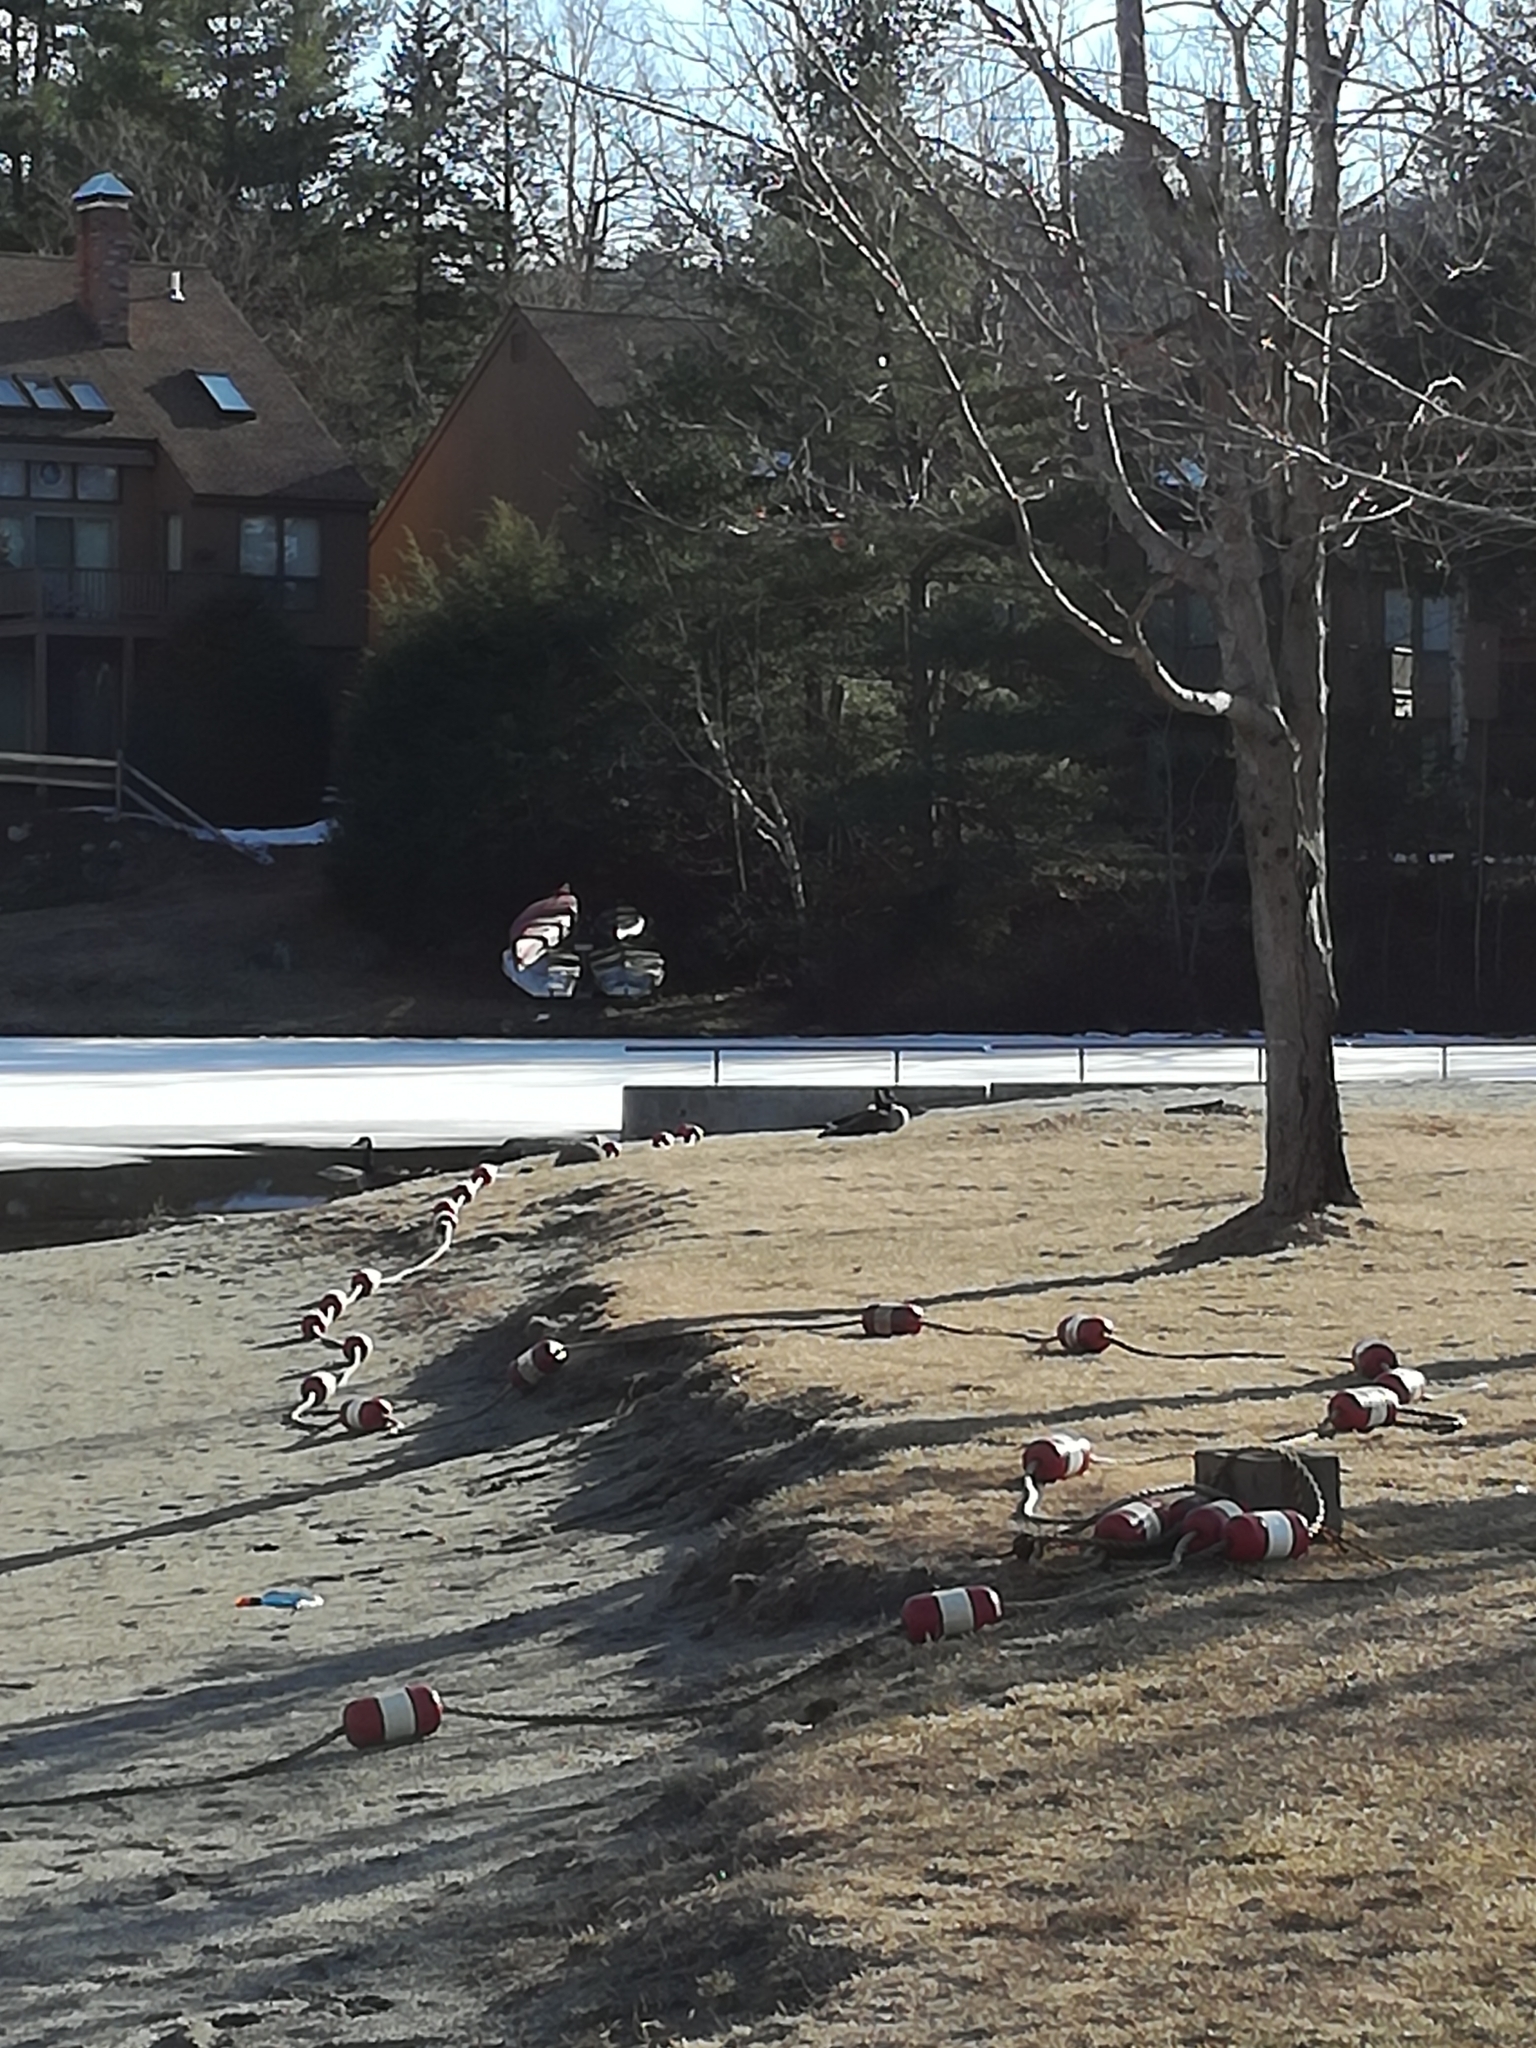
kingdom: Animalia
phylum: Chordata
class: Aves
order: Anseriformes
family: Anatidae
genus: Branta
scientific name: Branta canadensis
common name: Canada goose
